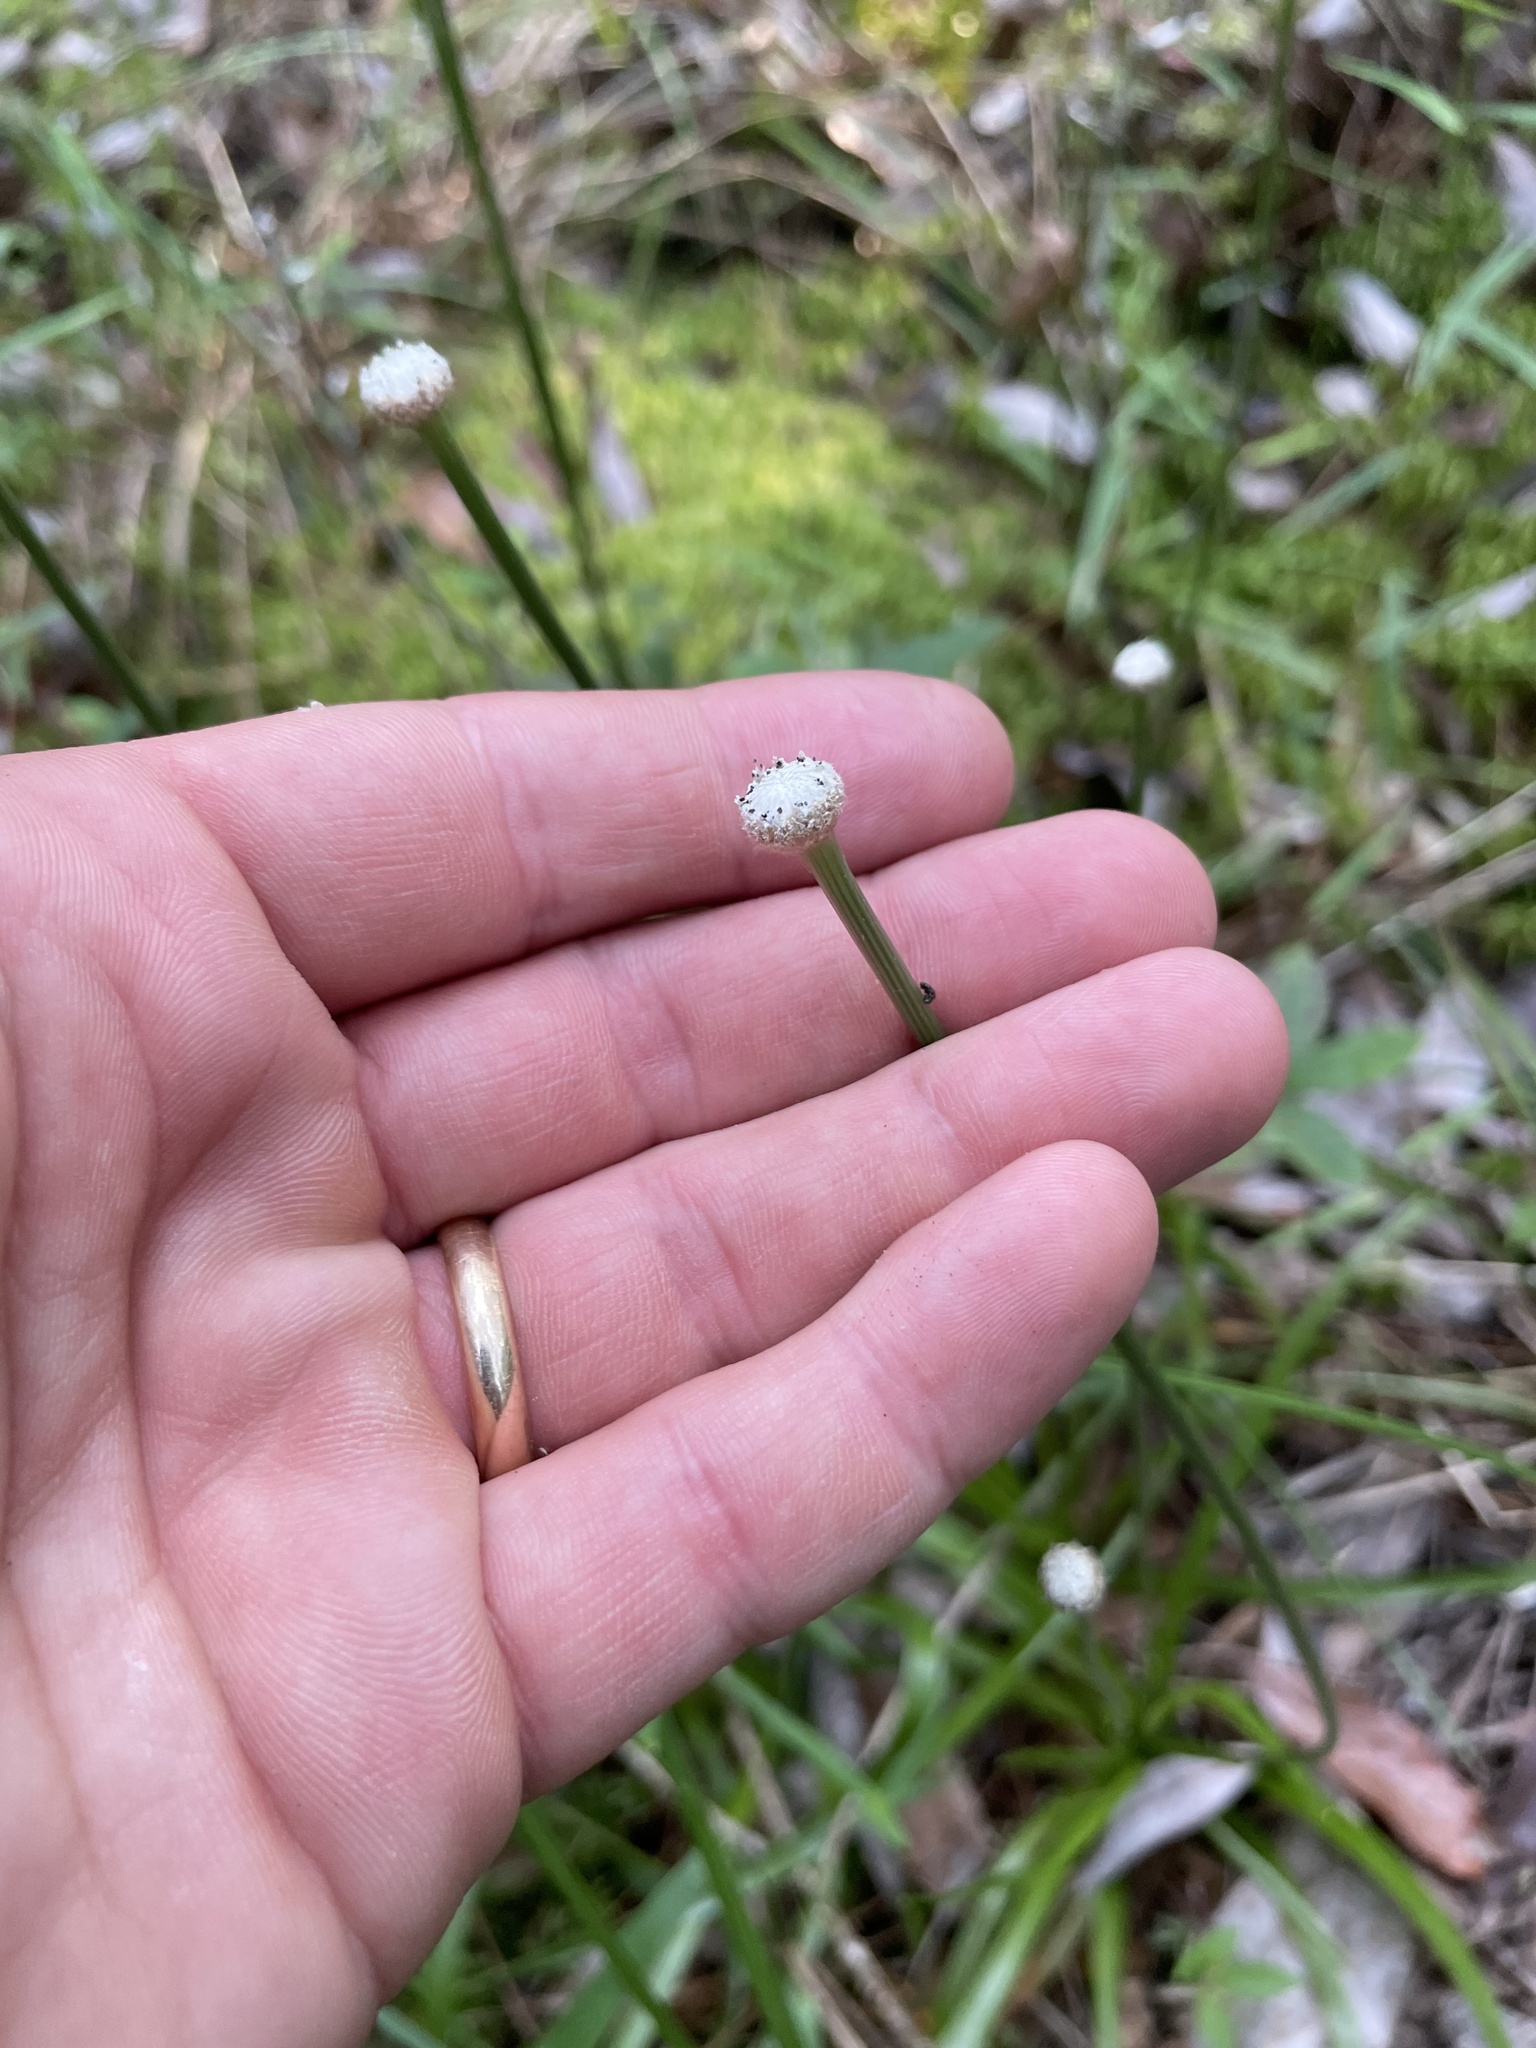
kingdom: Plantae
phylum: Tracheophyta
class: Liliopsida
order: Poales
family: Eriocaulaceae
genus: Eriocaulon
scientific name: Eriocaulon decangulare
